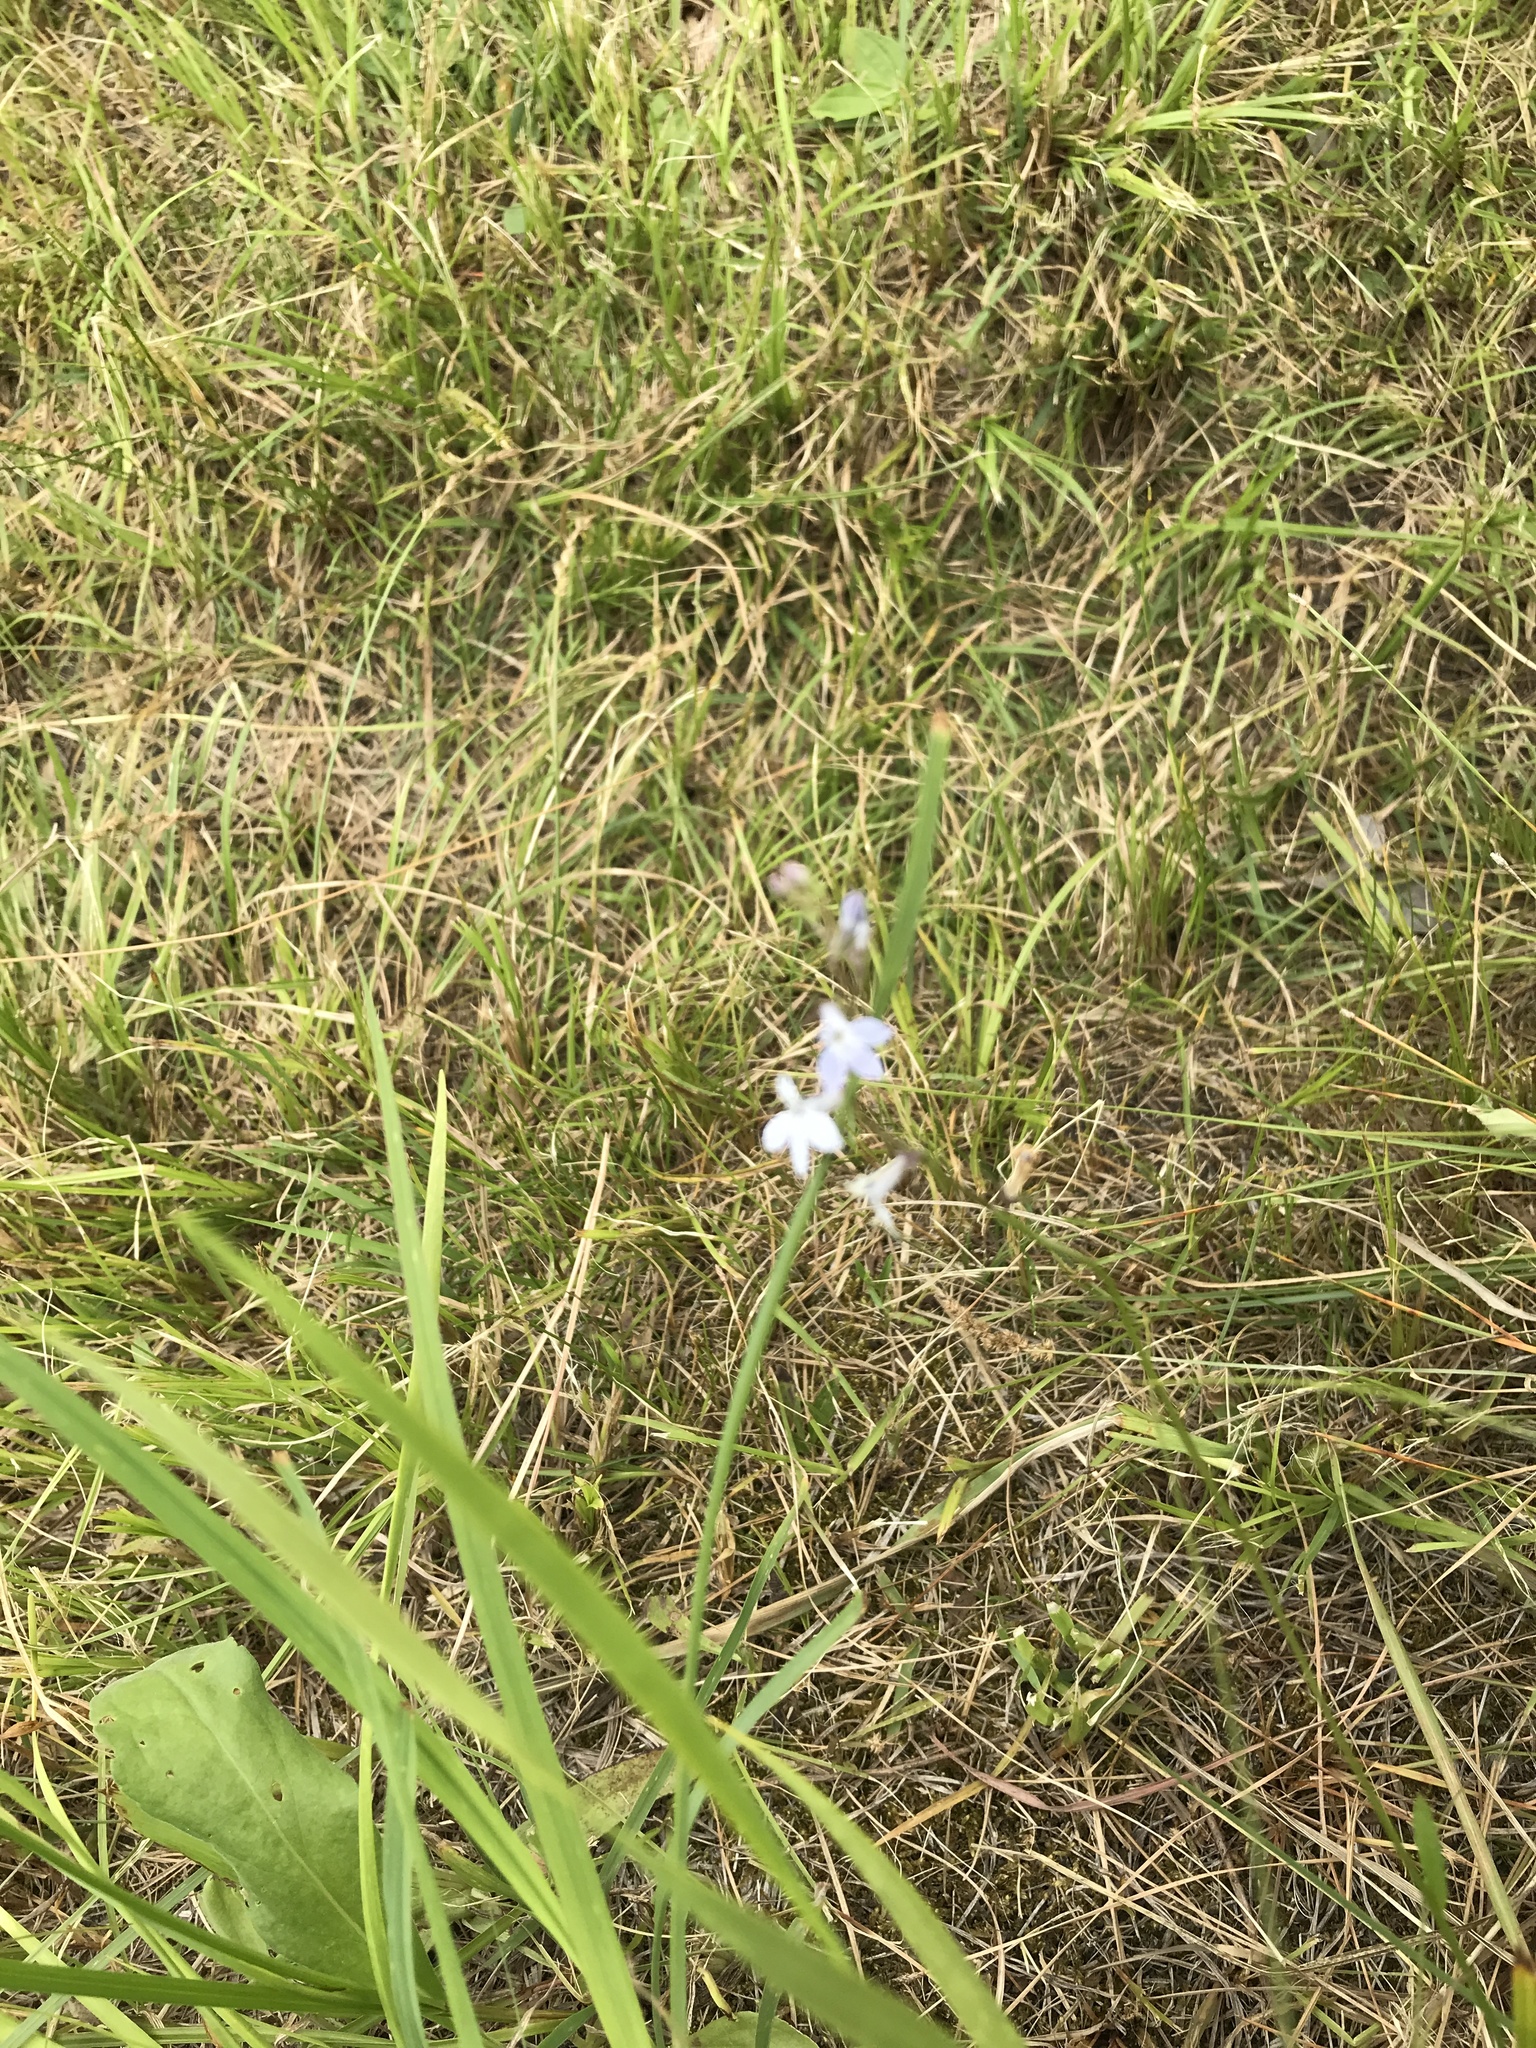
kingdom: Plantae
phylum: Tracheophyta
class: Magnoliopsida
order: Asterales
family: Campanulaceae
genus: Lobelia
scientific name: Lobelia spicata
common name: Pale-spike lobelia
